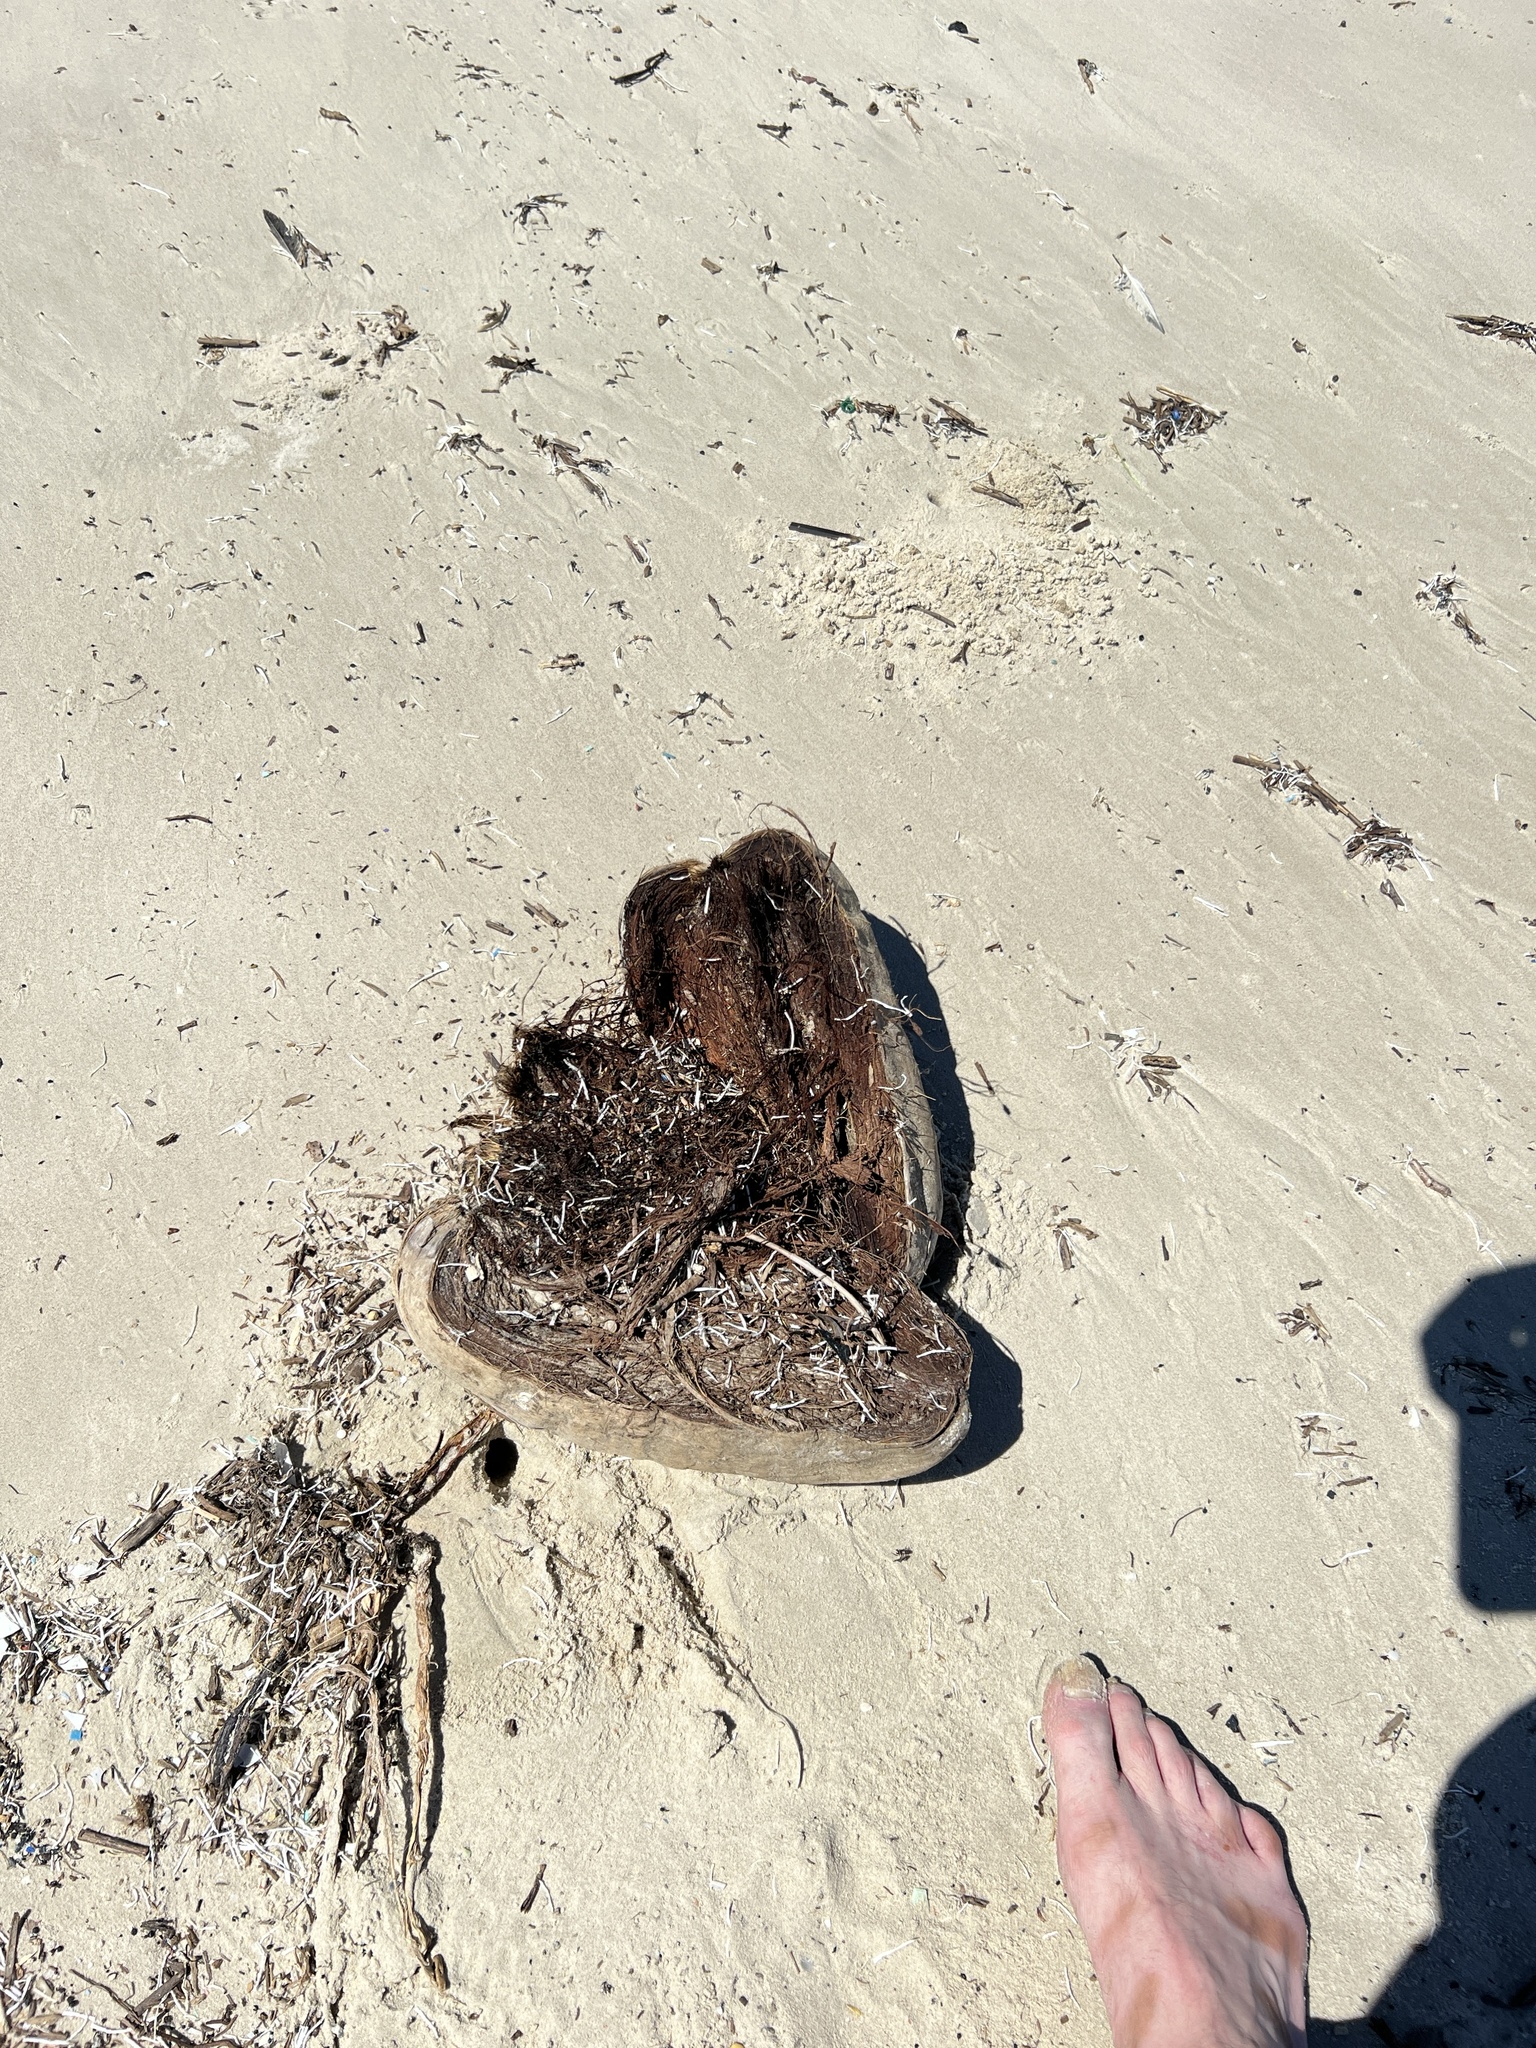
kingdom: Plantae
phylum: Tracheophyta
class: Liliopsida
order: Arecales
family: Arecaceae
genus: Cocos
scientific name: Cocos nucifera
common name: Coconut palm
